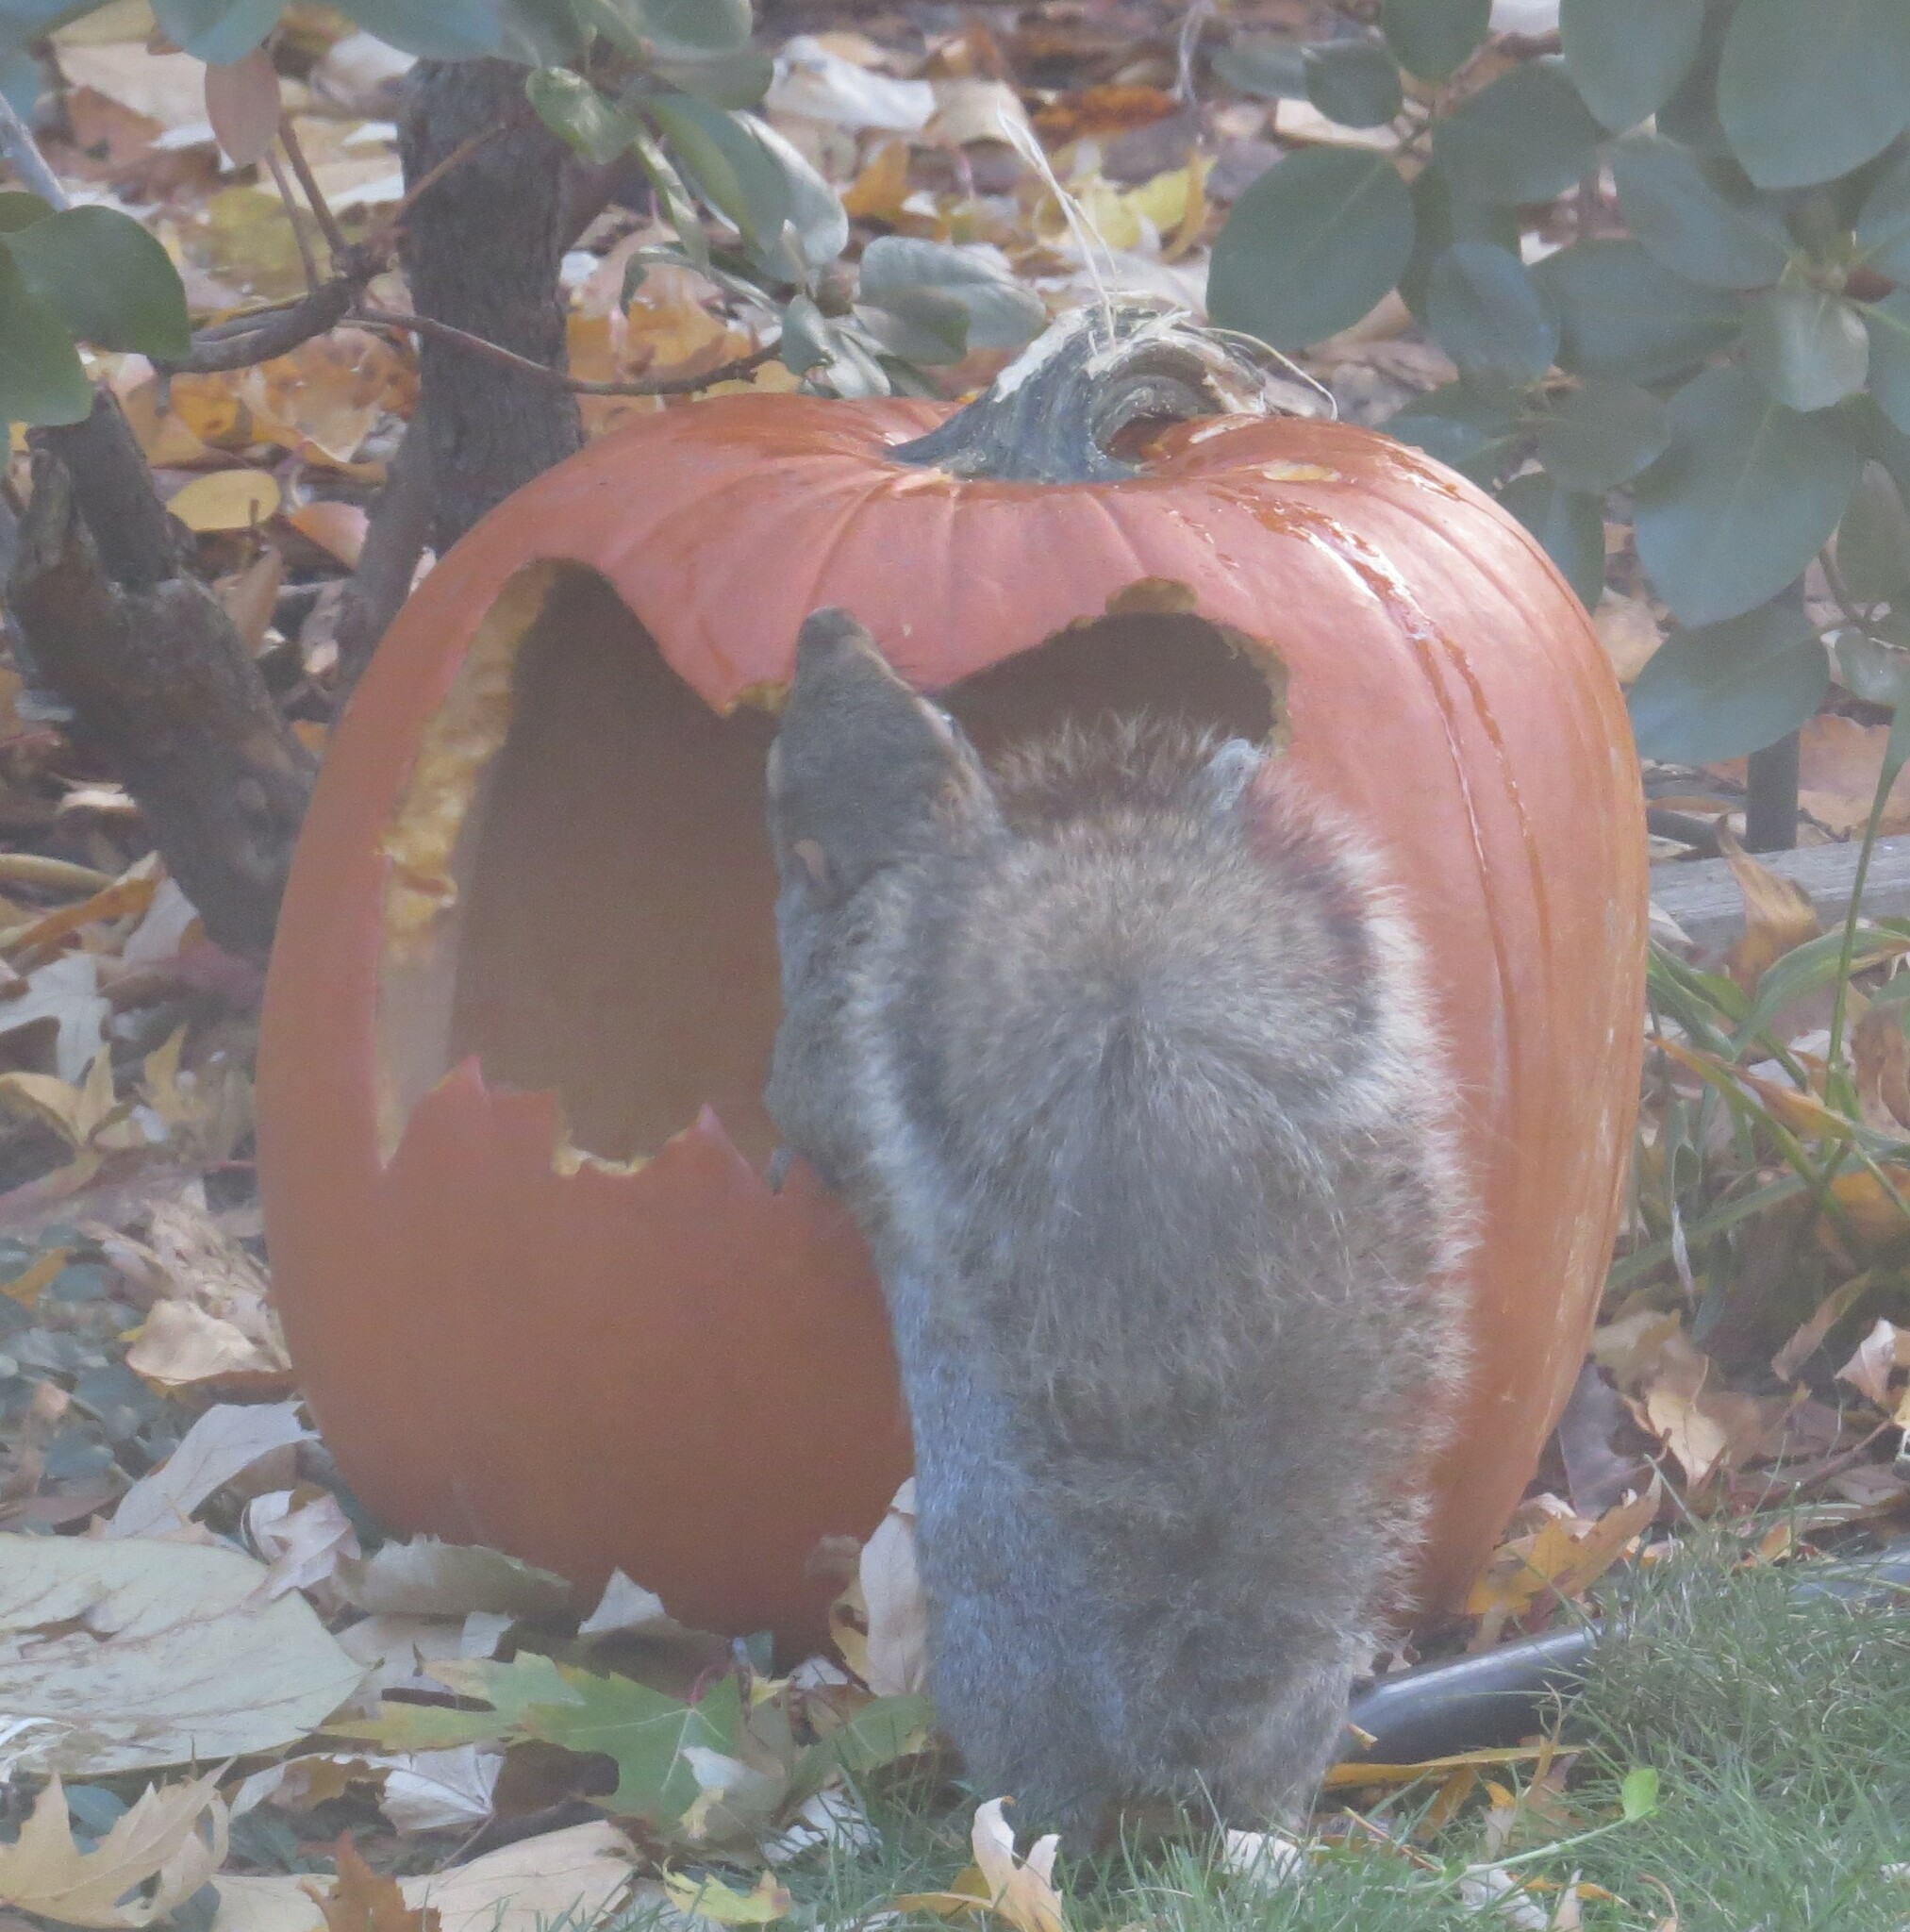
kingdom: Animalia
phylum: Chordata
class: Mammalia
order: Rodentia
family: Sciuridae
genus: Sciurus
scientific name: Sciurus carolinensis
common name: Eastern gray squirrel
